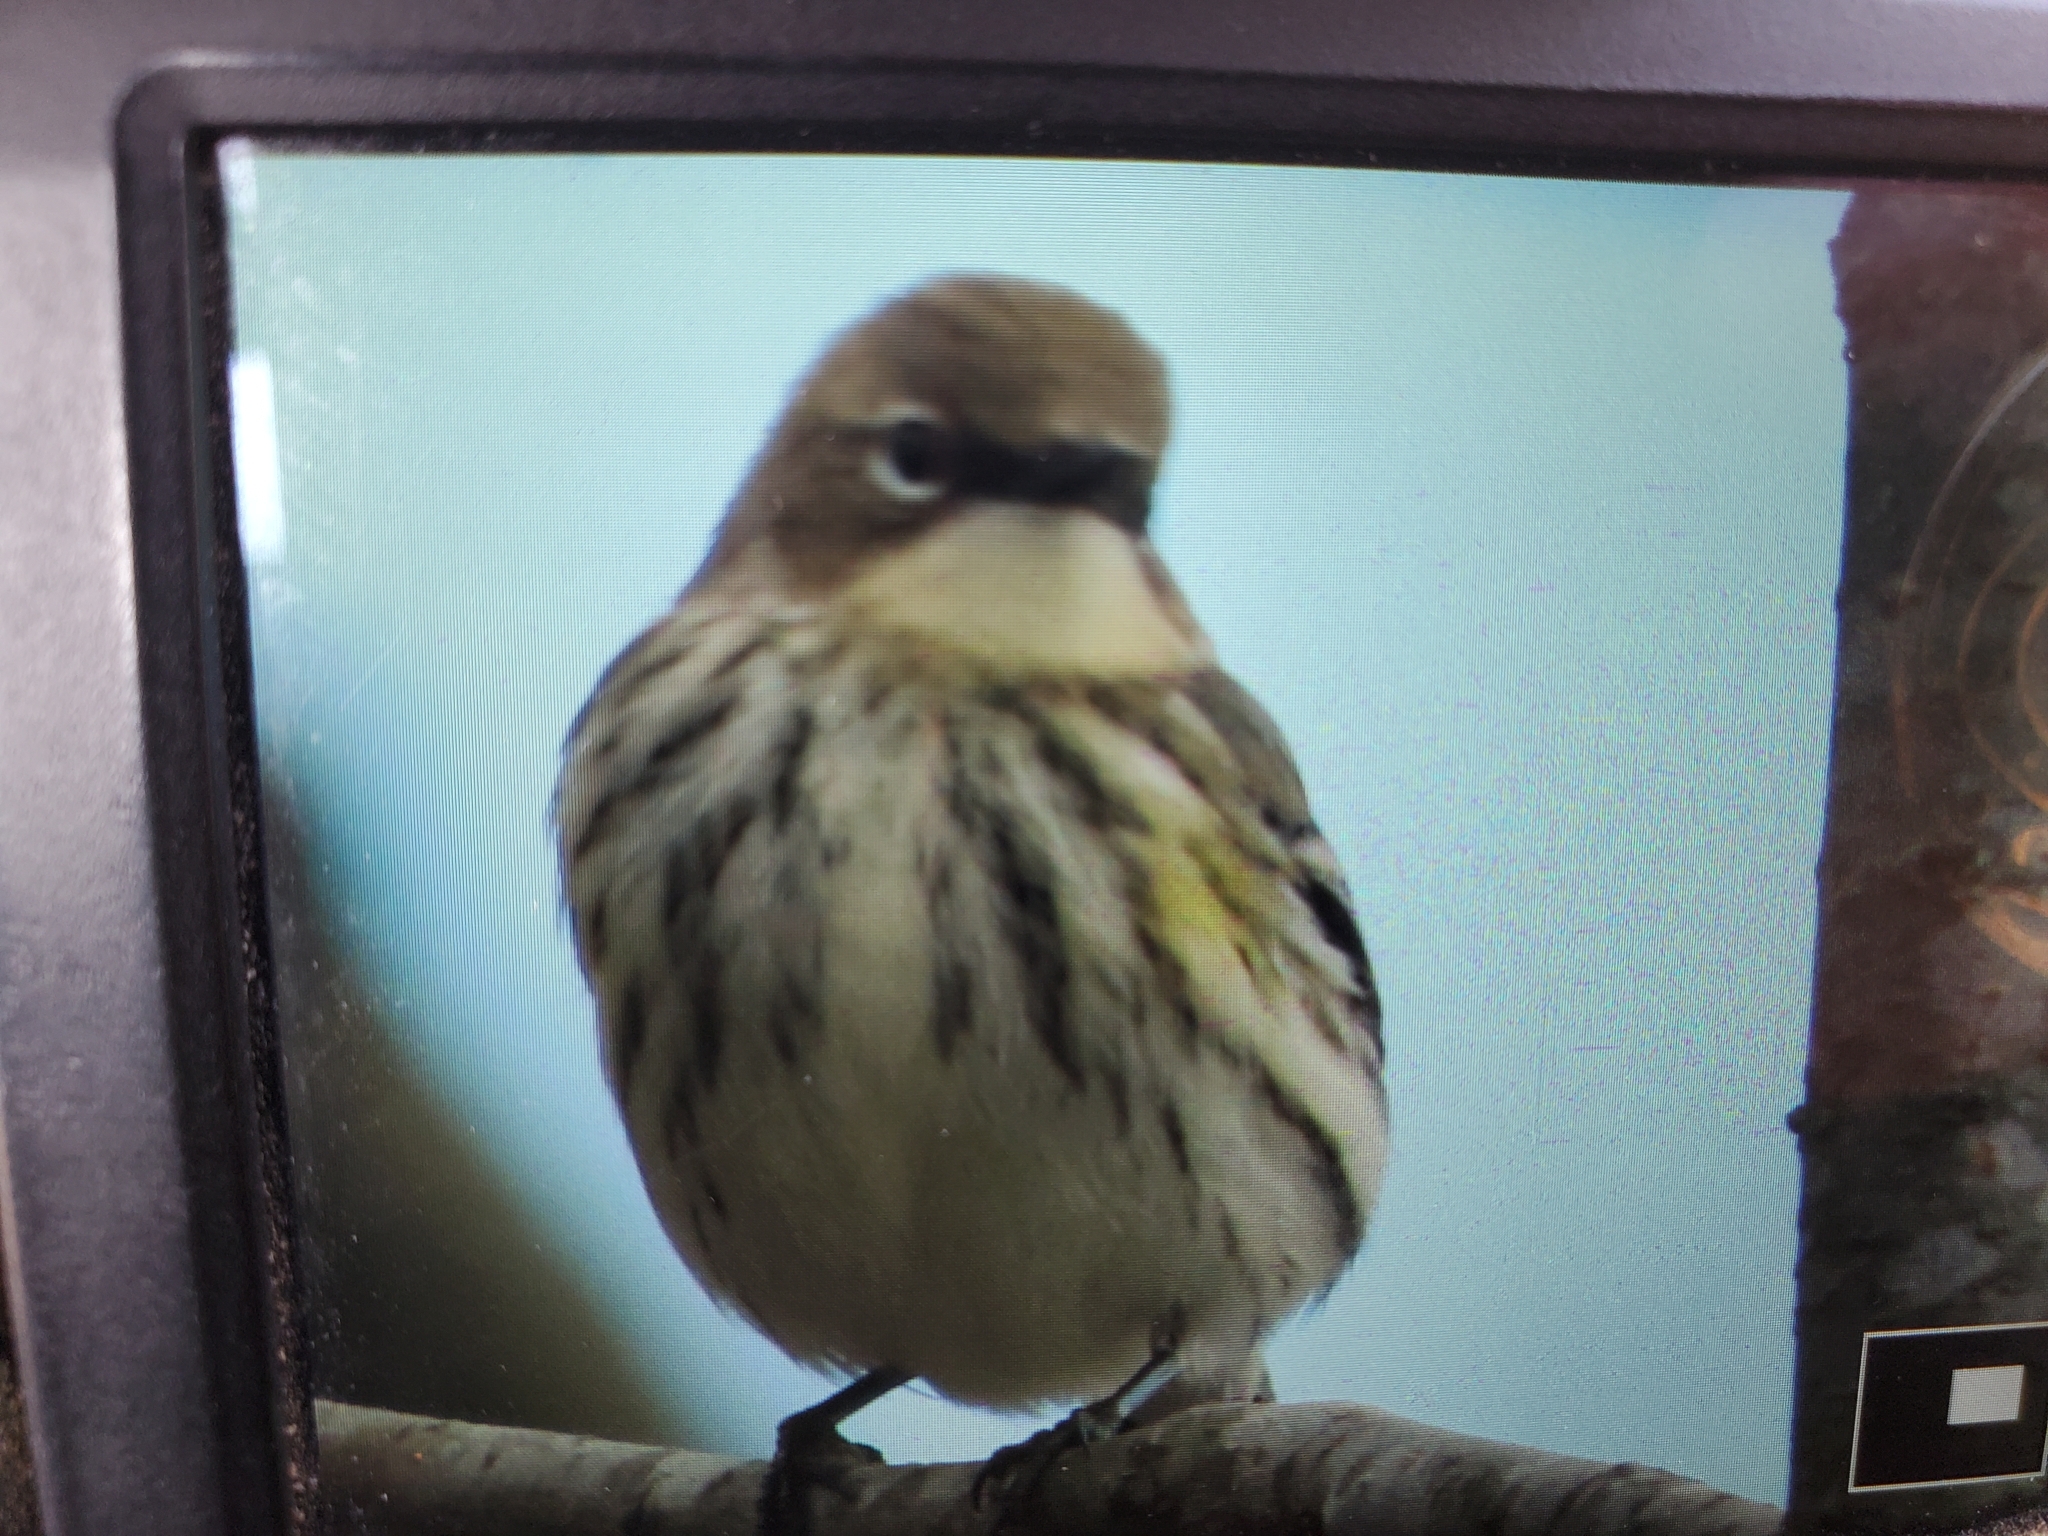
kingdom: Animalia
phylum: Chordata
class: Aves
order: Passeriformes
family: Parulidae
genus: Setophaga
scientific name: Setophaga coronata
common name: Myrtle warbler
